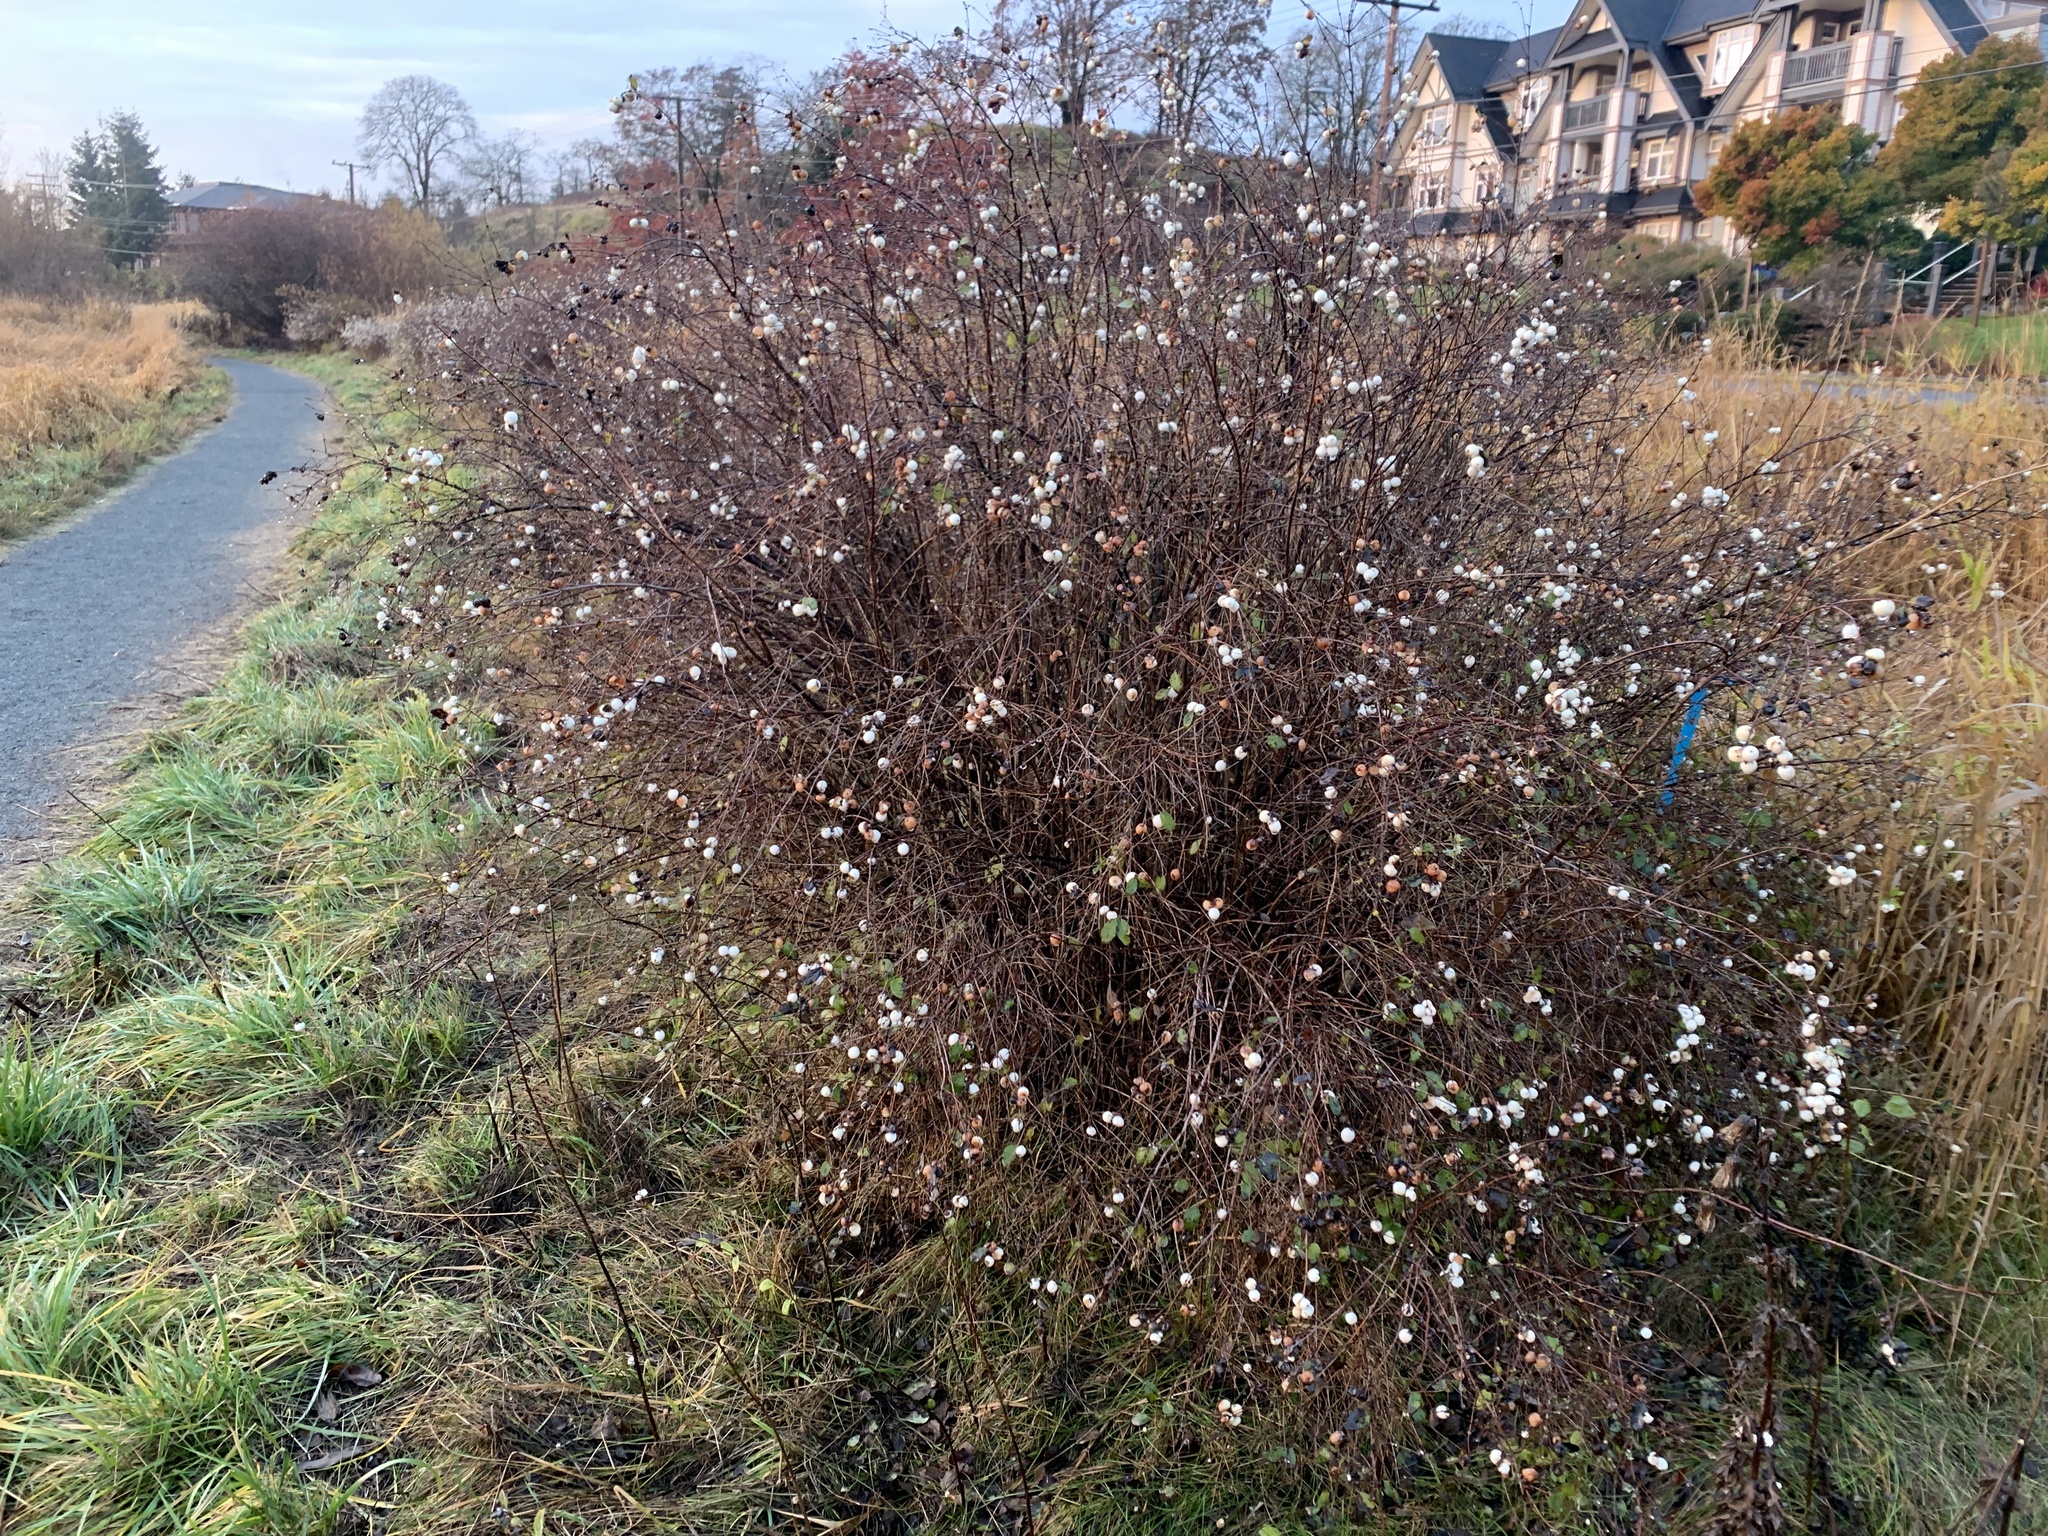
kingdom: Plantae
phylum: Tracheophyta
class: Magnoliopsida
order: Dipsacales
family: Caprifoliaceae
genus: Symphoricarpos
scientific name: Symphoricarpos albus
